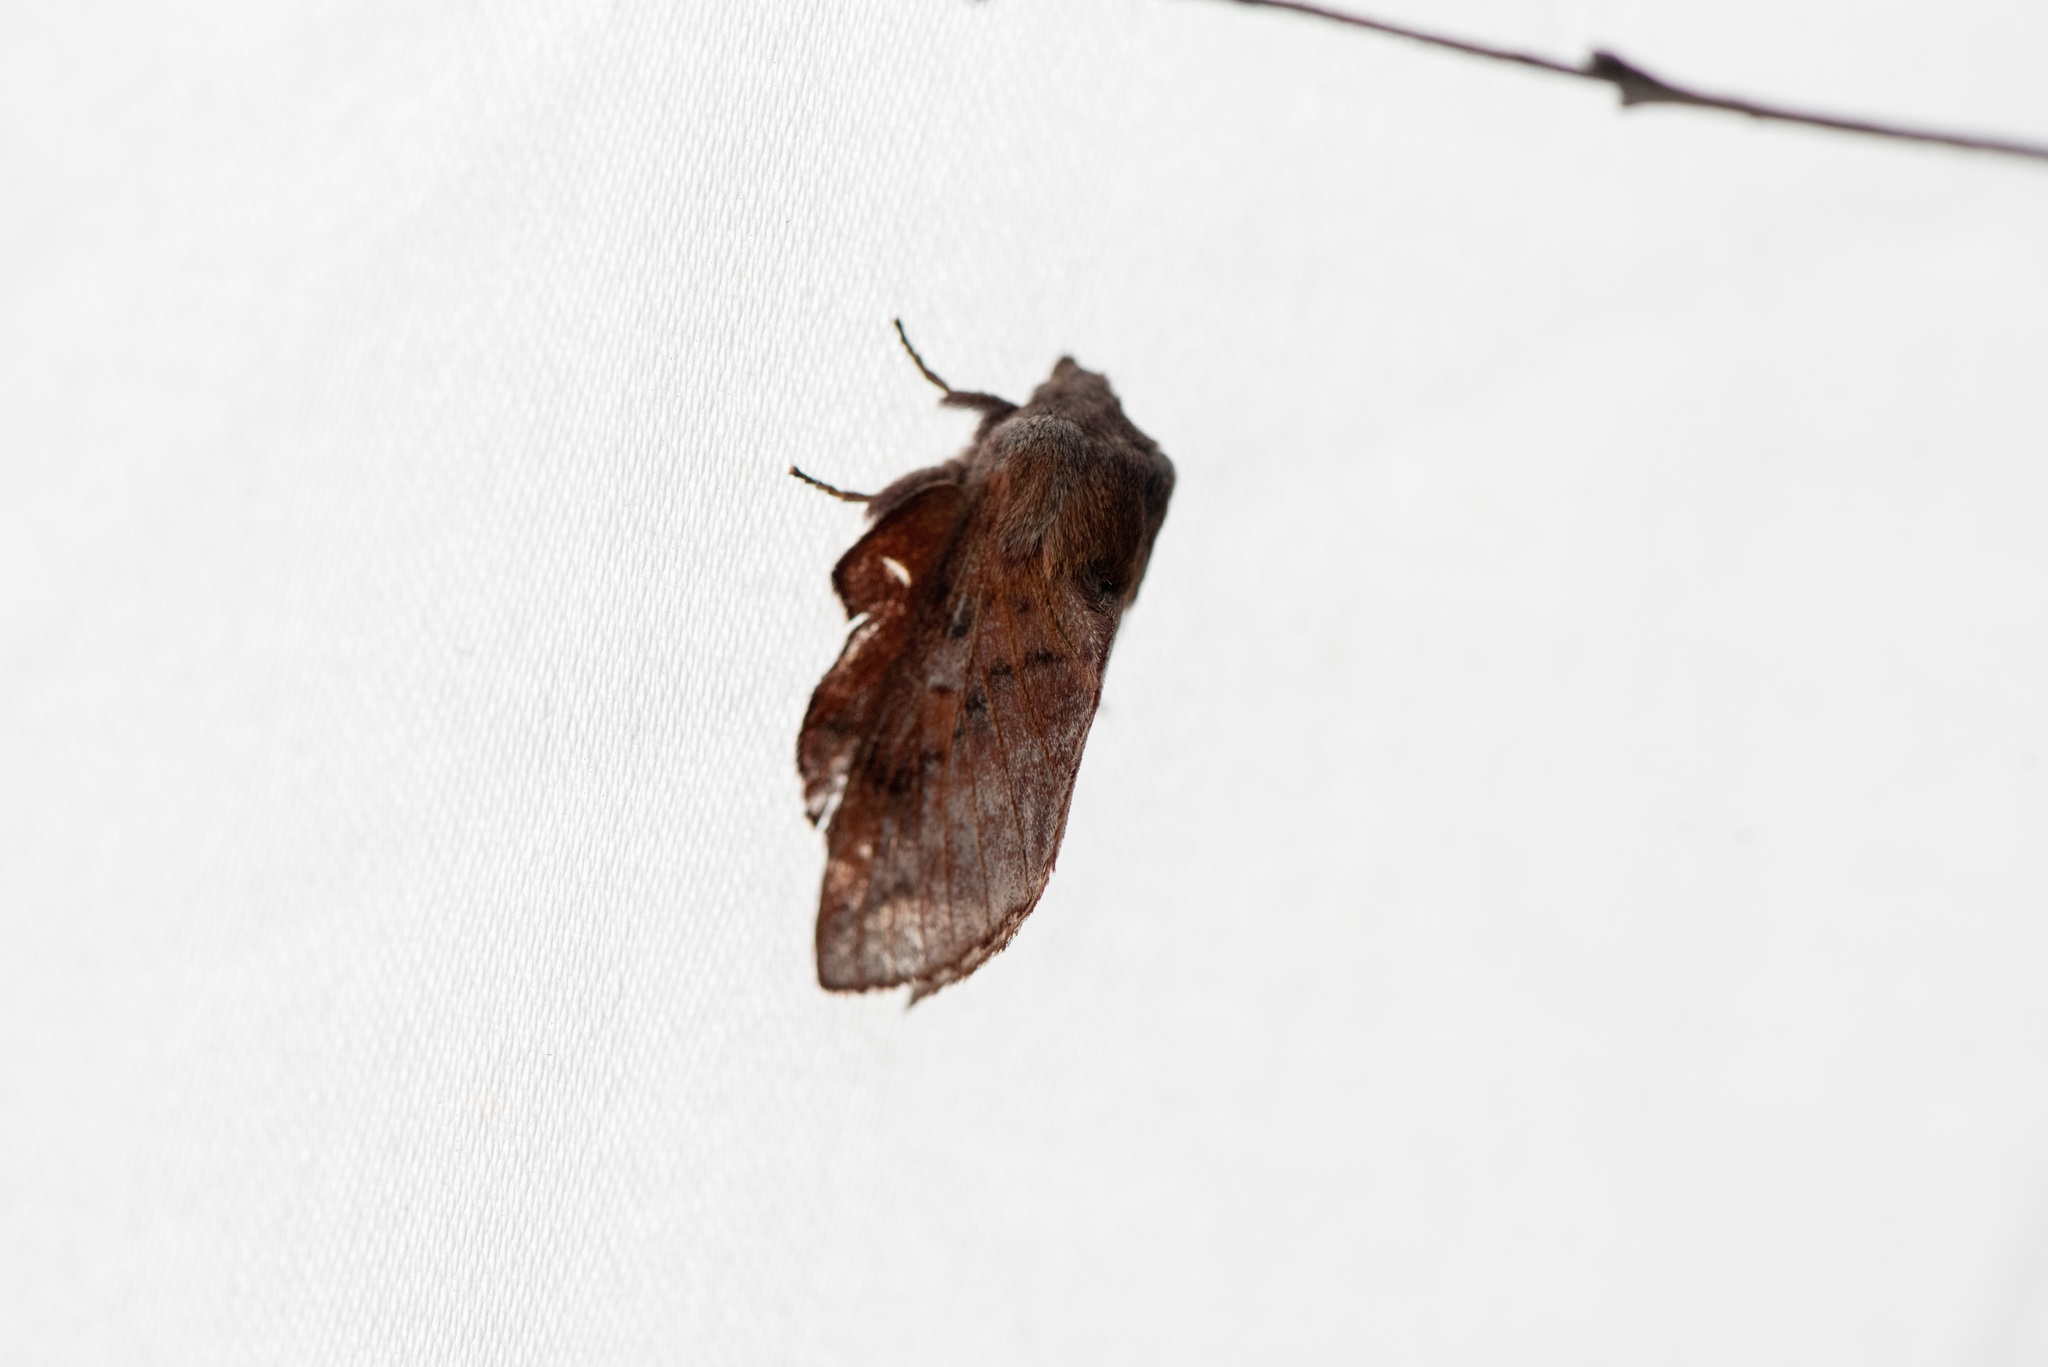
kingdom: Animalia
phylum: Arthropoda
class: Insecta
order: Lepidoptera
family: Lasiocampidae
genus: Phyllodesma
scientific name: Phyllodesma americana
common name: American lappet moth
